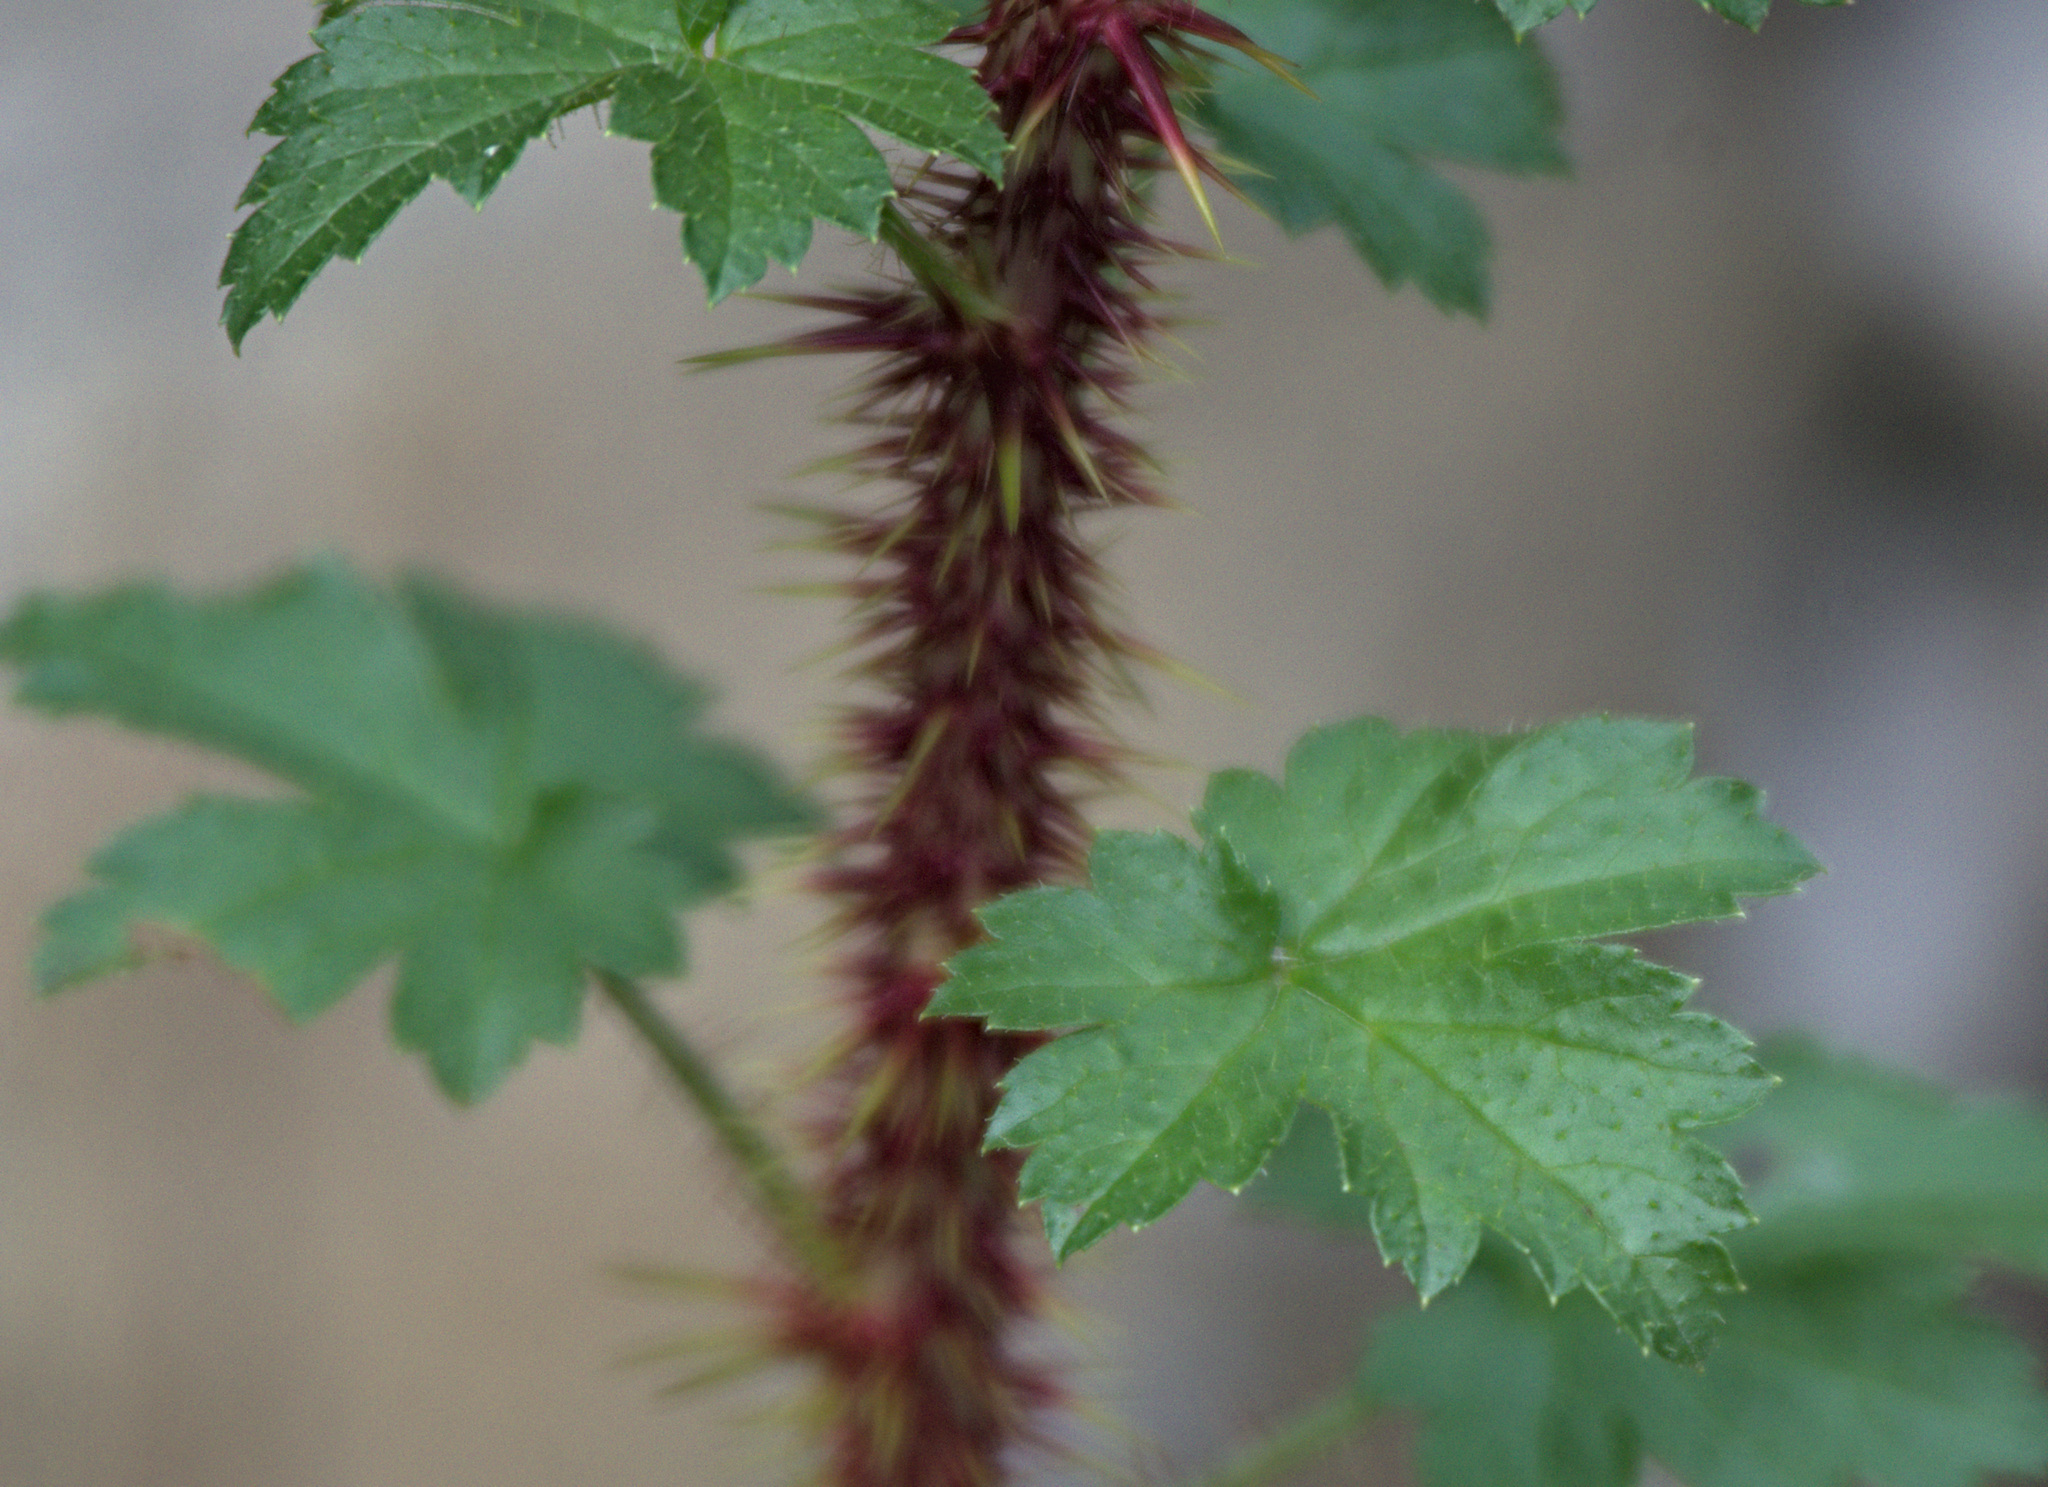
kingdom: Plantae
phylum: Tracheophyta
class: Magnoliopsida
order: Saxifragales
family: Grossulariaceae
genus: Ribes
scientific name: Ribes aciculare
